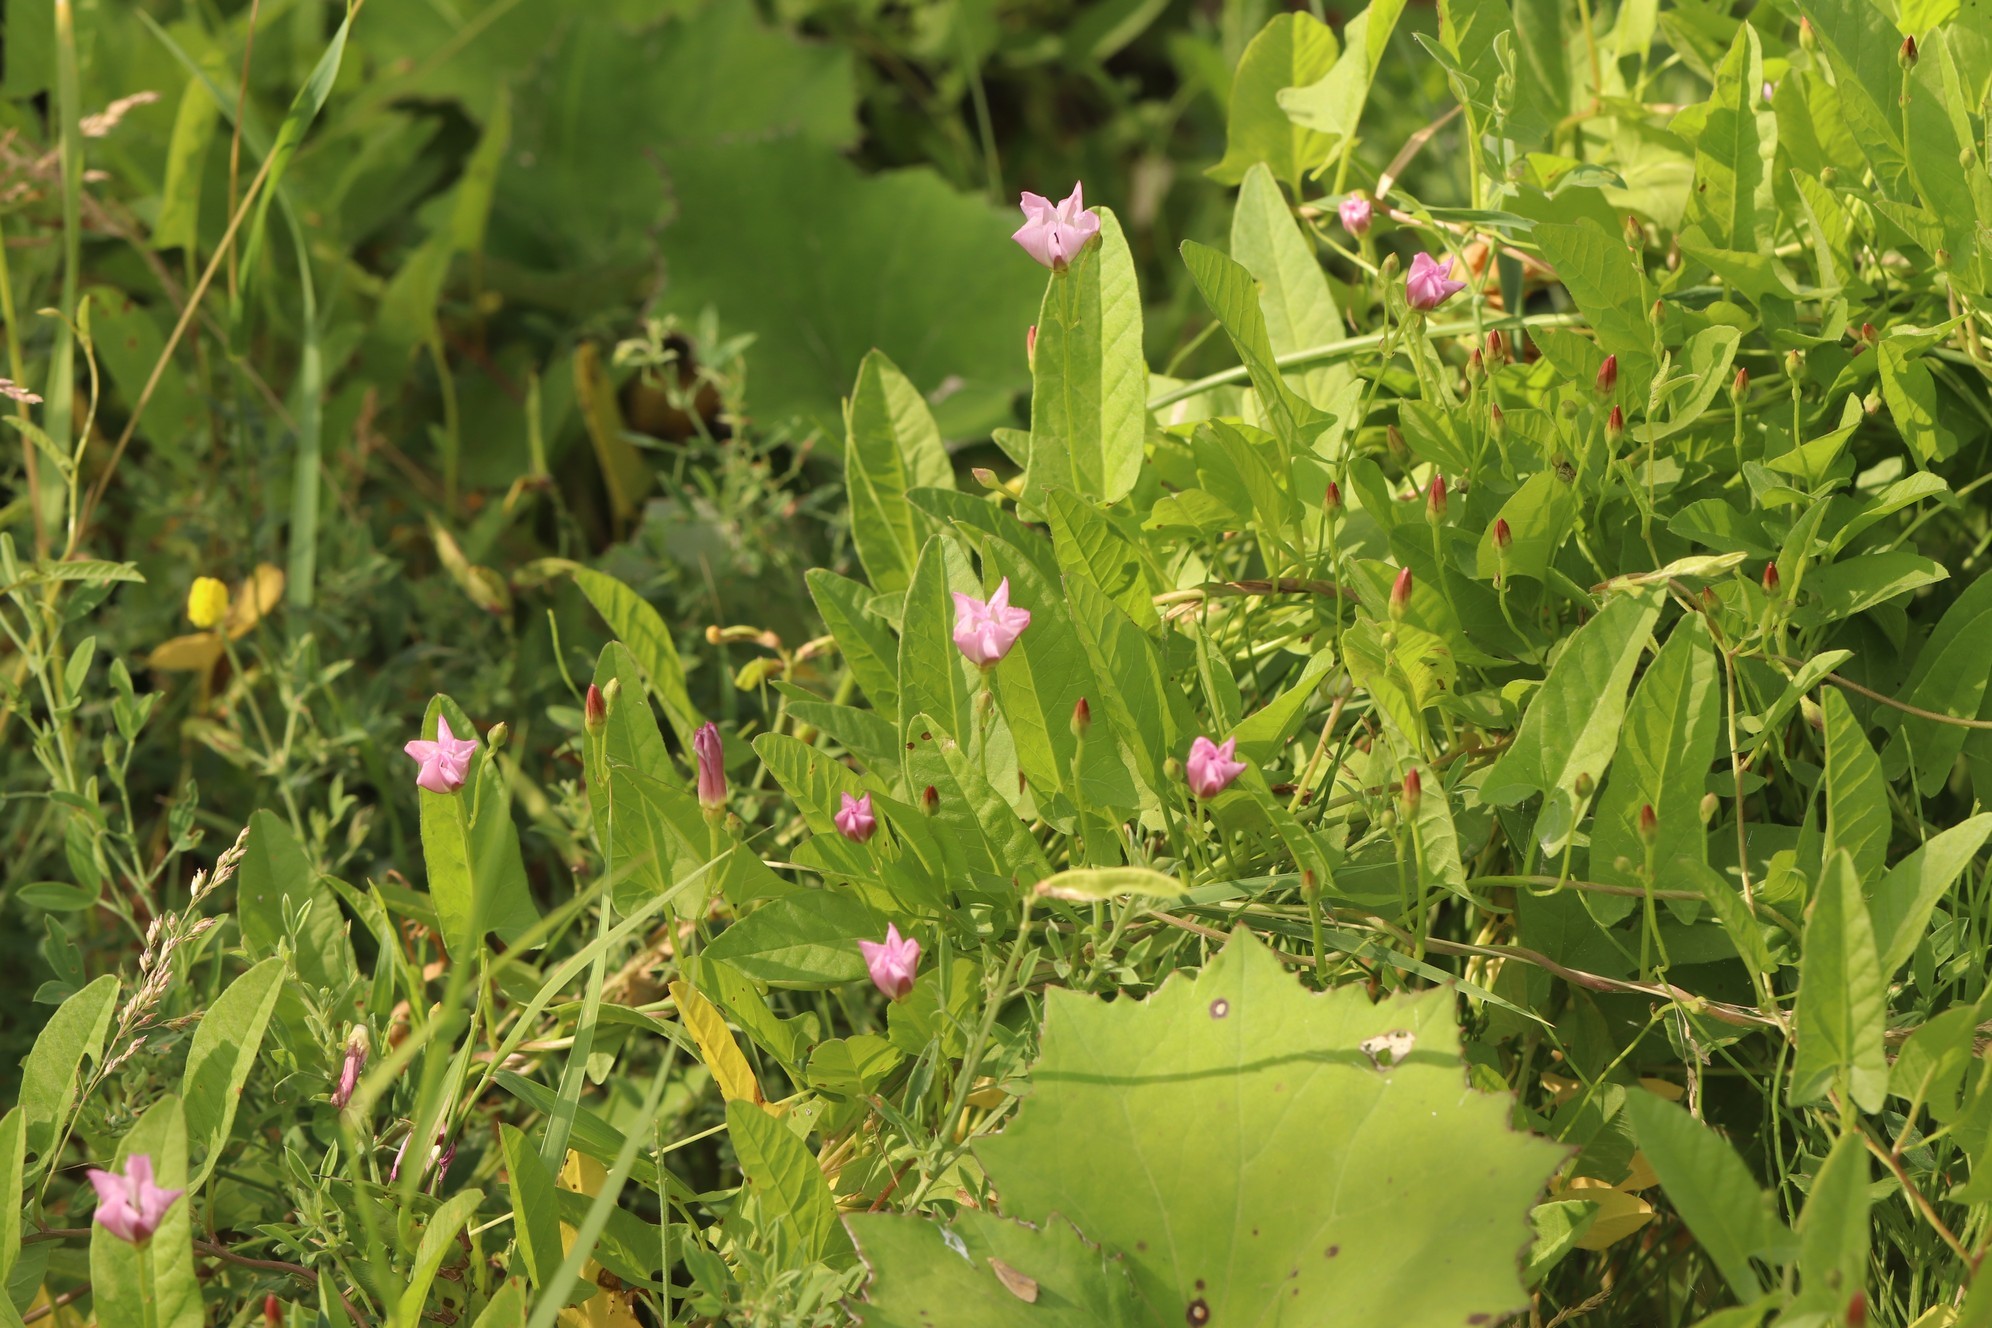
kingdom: Plantae
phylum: Tracheophyta
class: Magnoliopsida
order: Solanales
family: Convolvulaceae
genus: Convolvulus
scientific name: Convolvulus arvensis
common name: Field bindweed
